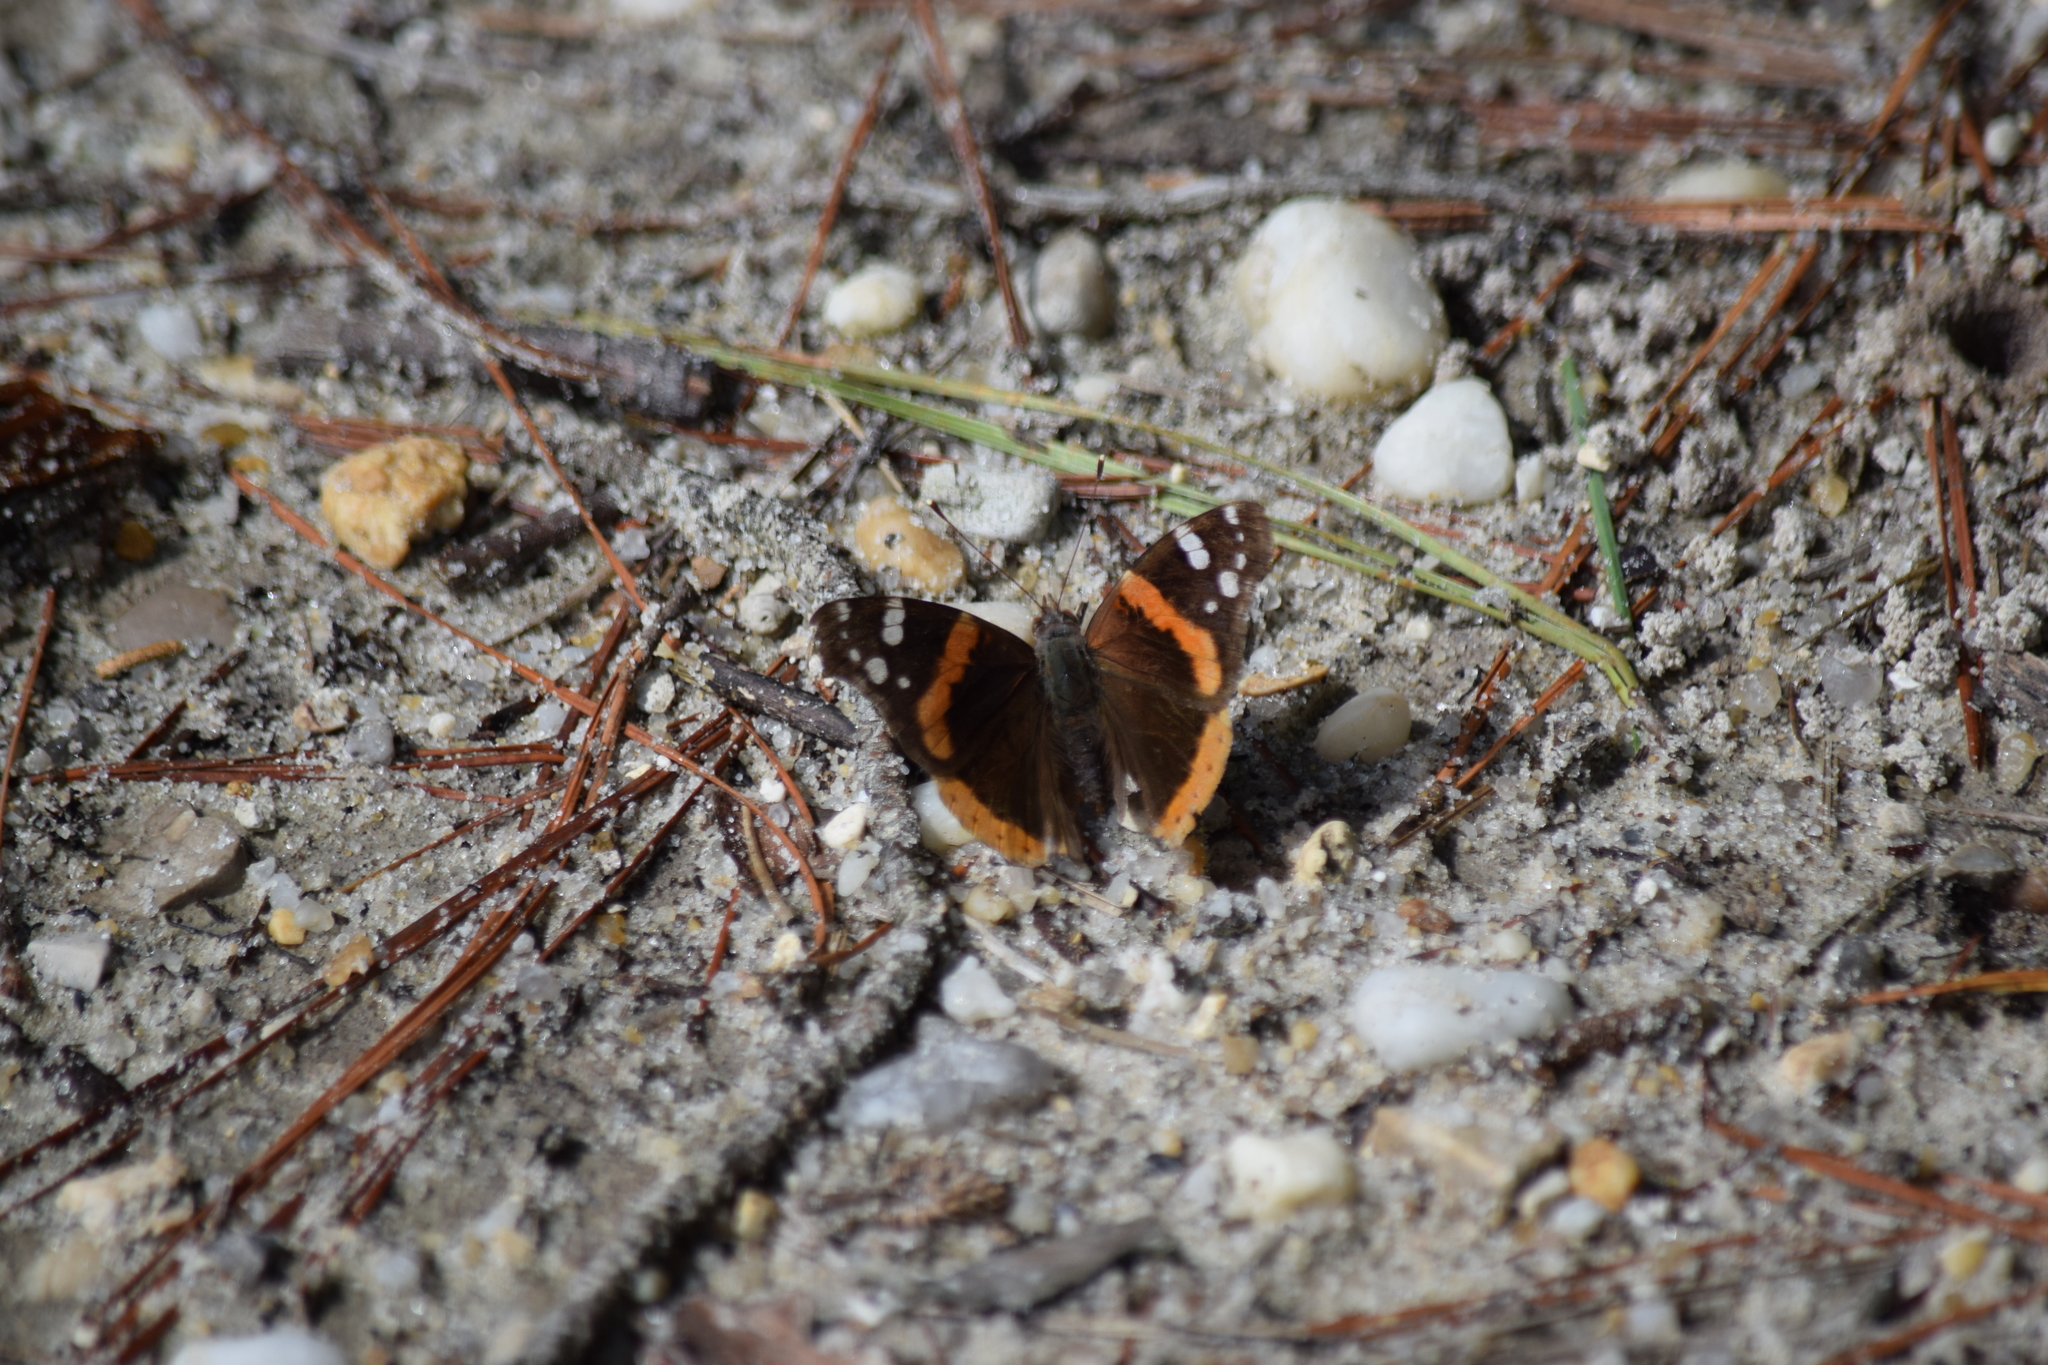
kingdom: Animalia
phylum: Arthropoda
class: Insecta
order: Lepidoptera
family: Nymphalidae
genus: Vanessa
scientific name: Vanessa atalanta
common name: Red admiral
